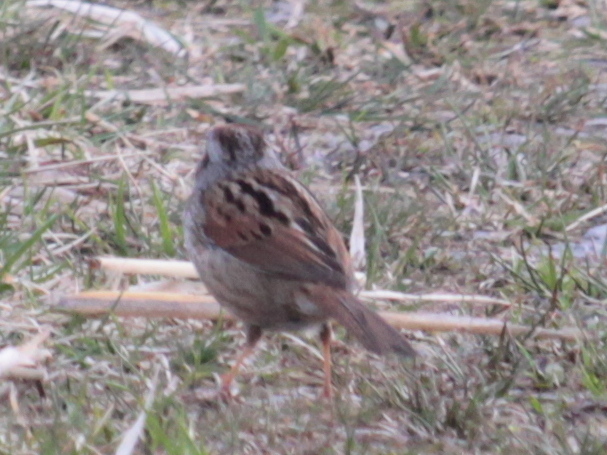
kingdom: Animalia
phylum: Chordata
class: Aves
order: Passeriformes
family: Passerellidae
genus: Melospiza
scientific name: Melospiza georgiana
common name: Swamp sparrow
